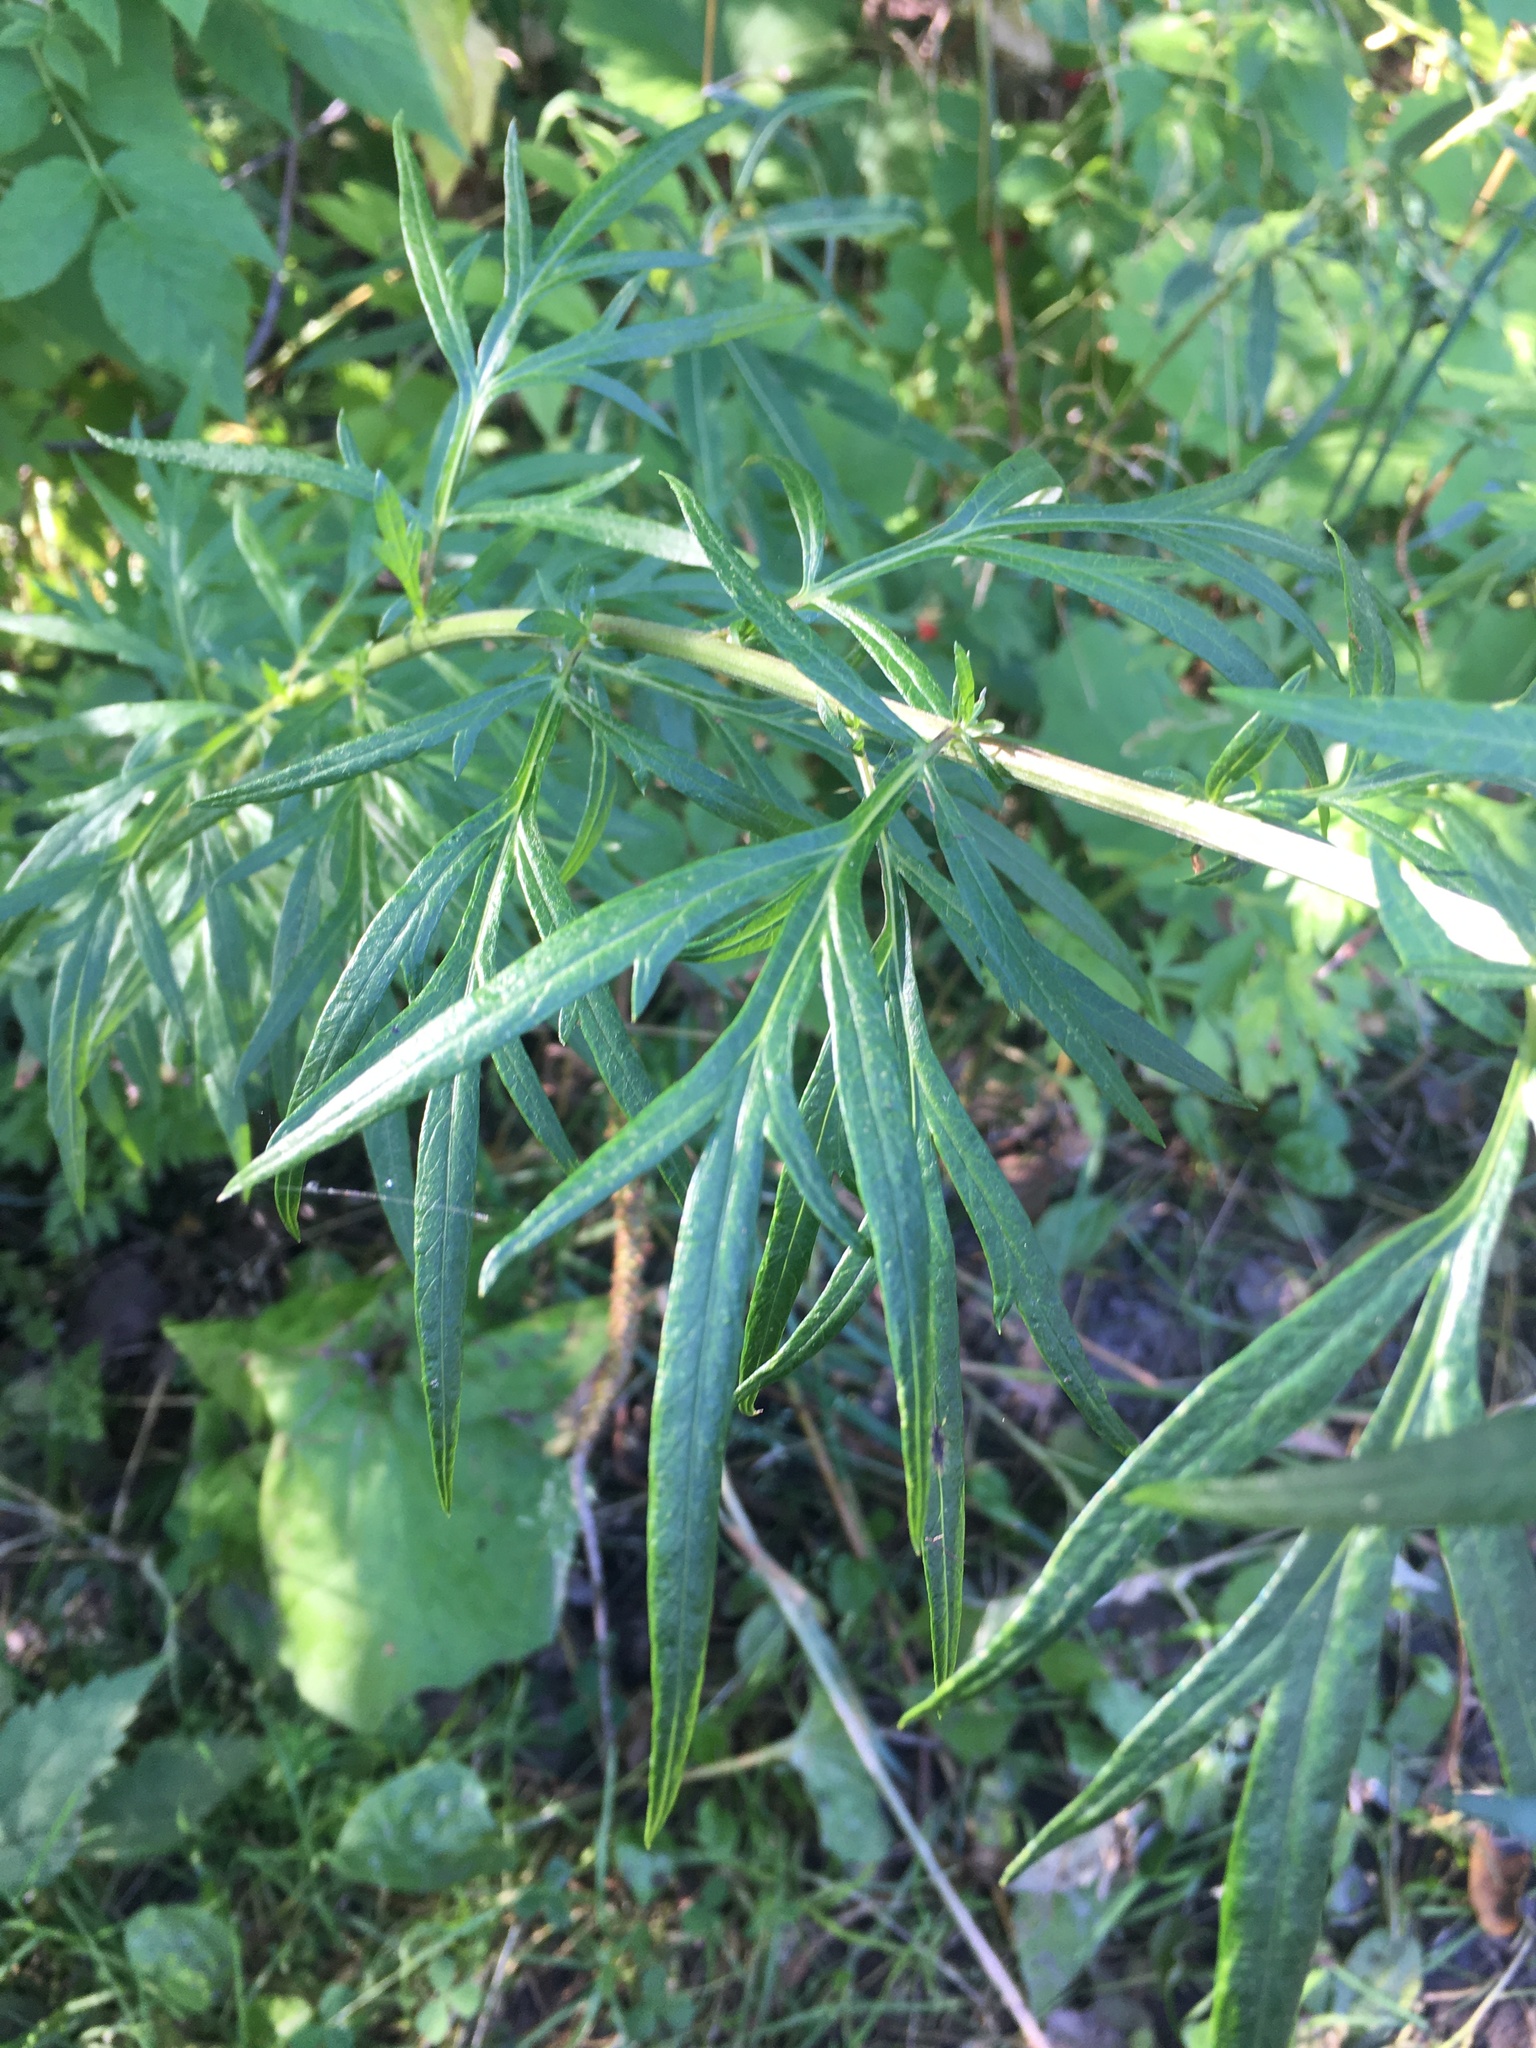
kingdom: Plantae
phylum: Tracheophyta
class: Magnoliopsida
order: Asterales
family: Asteraceae
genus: Artemisia
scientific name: Artemisia vulgaris
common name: Mugwort
